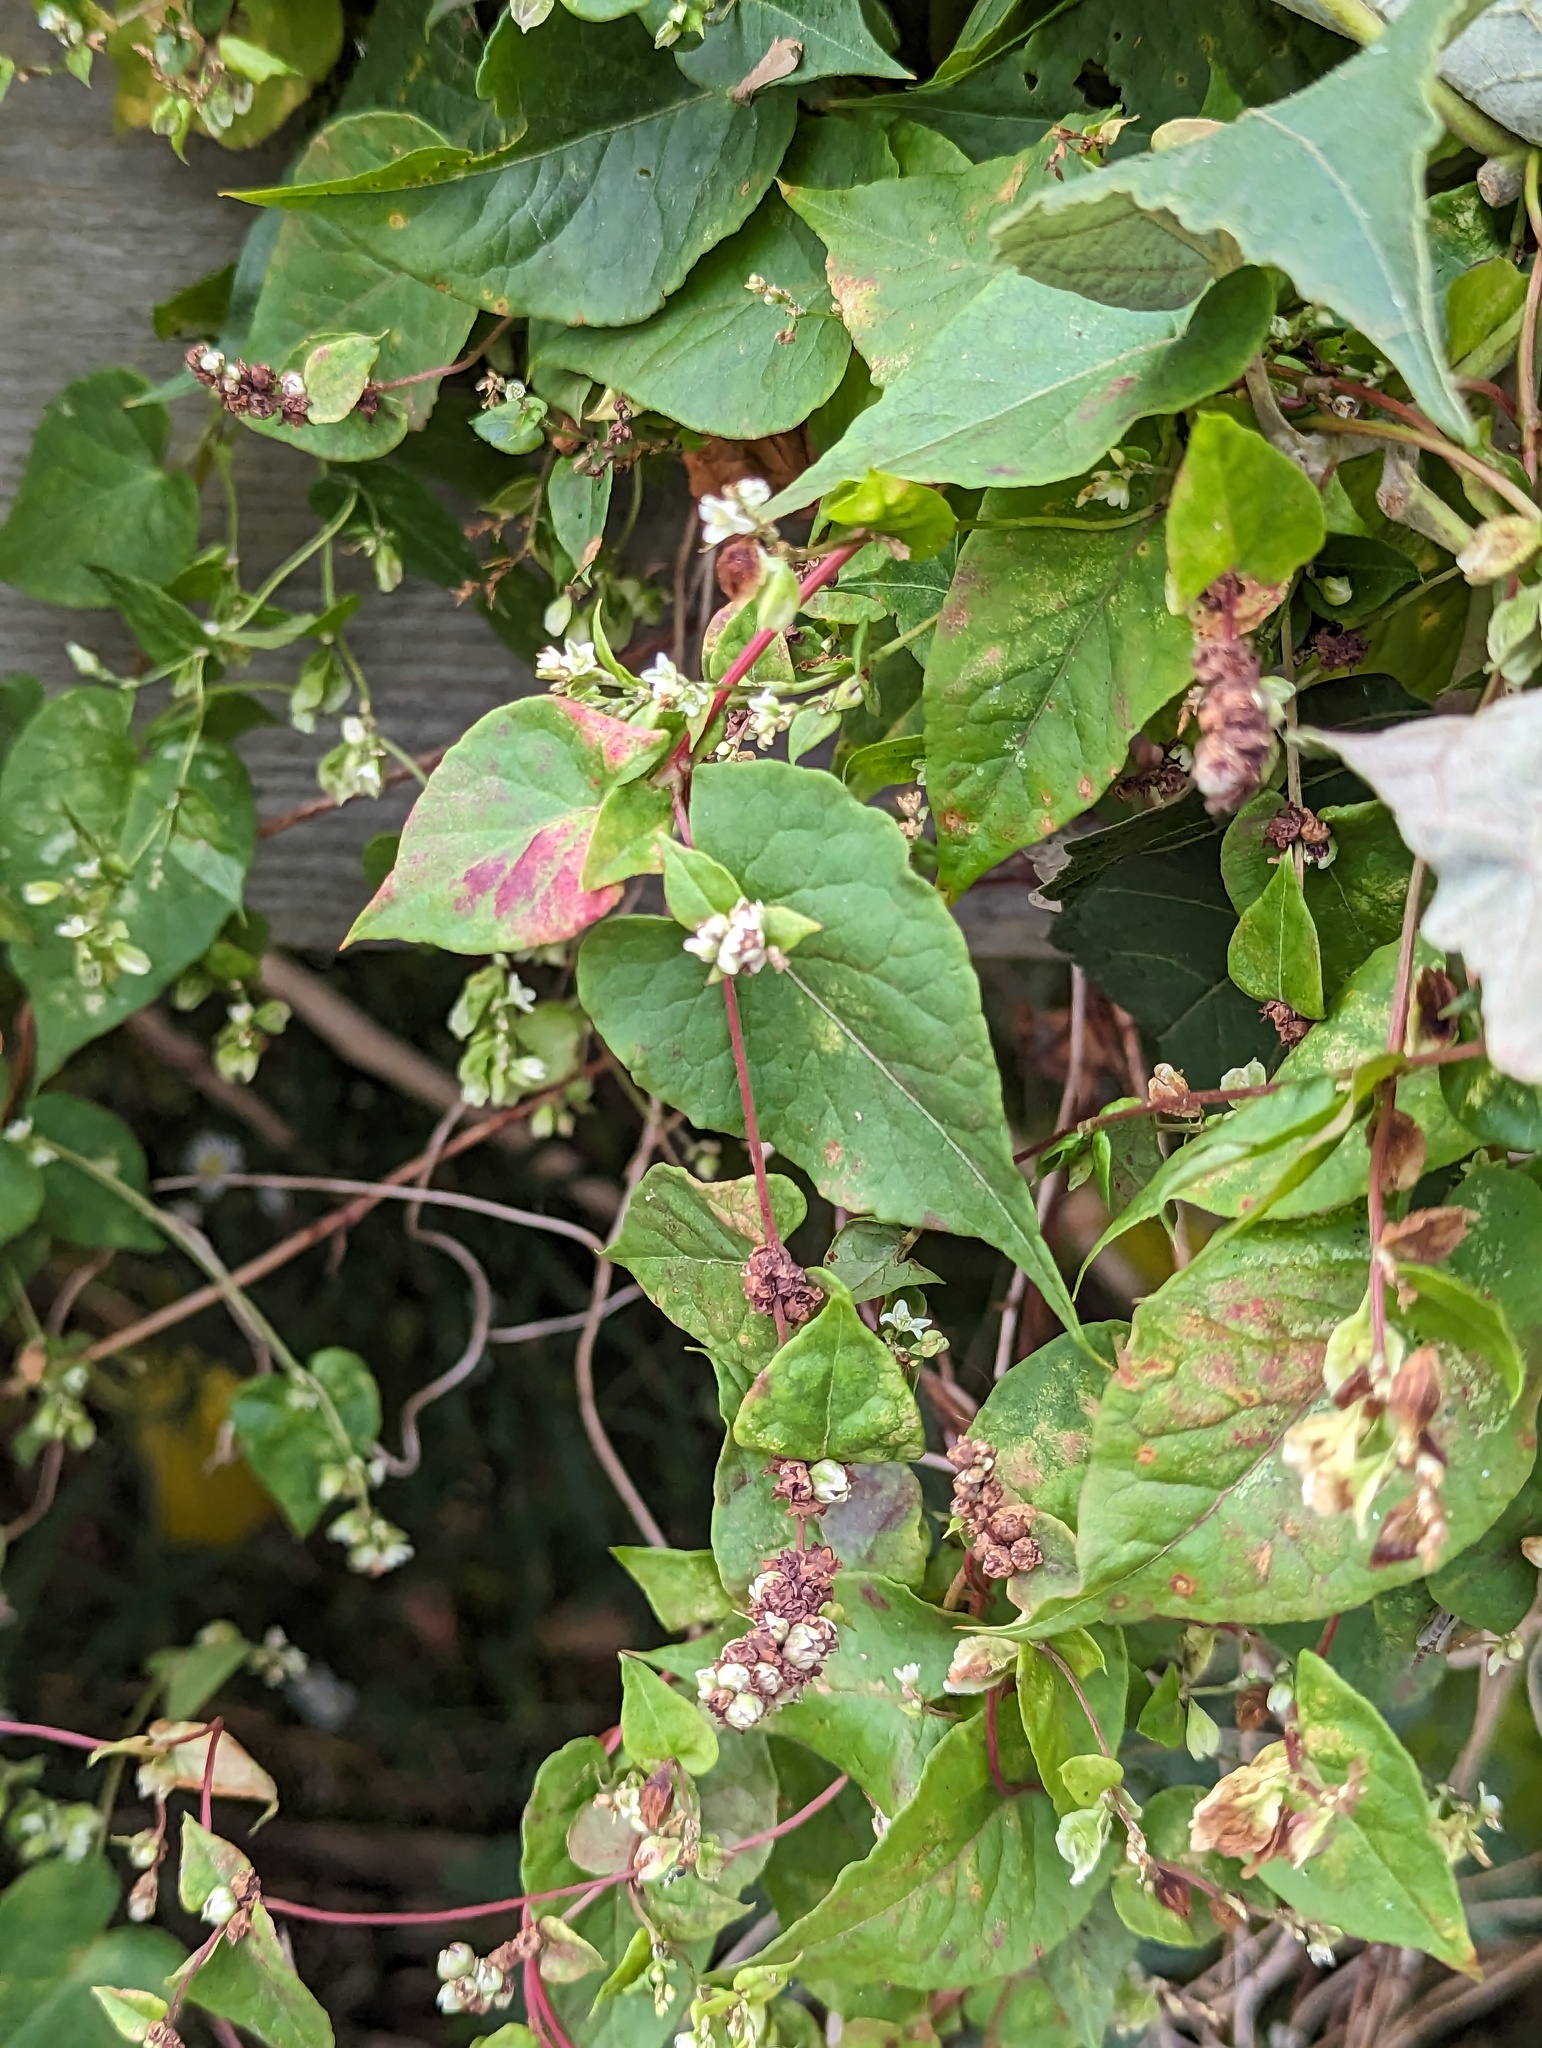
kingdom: Plantae
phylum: Tracheophyta
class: Magnoliopsida
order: Caryophyllales
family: Polygonaceae
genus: Fallopia
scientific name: Fallopia scandens
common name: Climbing false buckwheat
